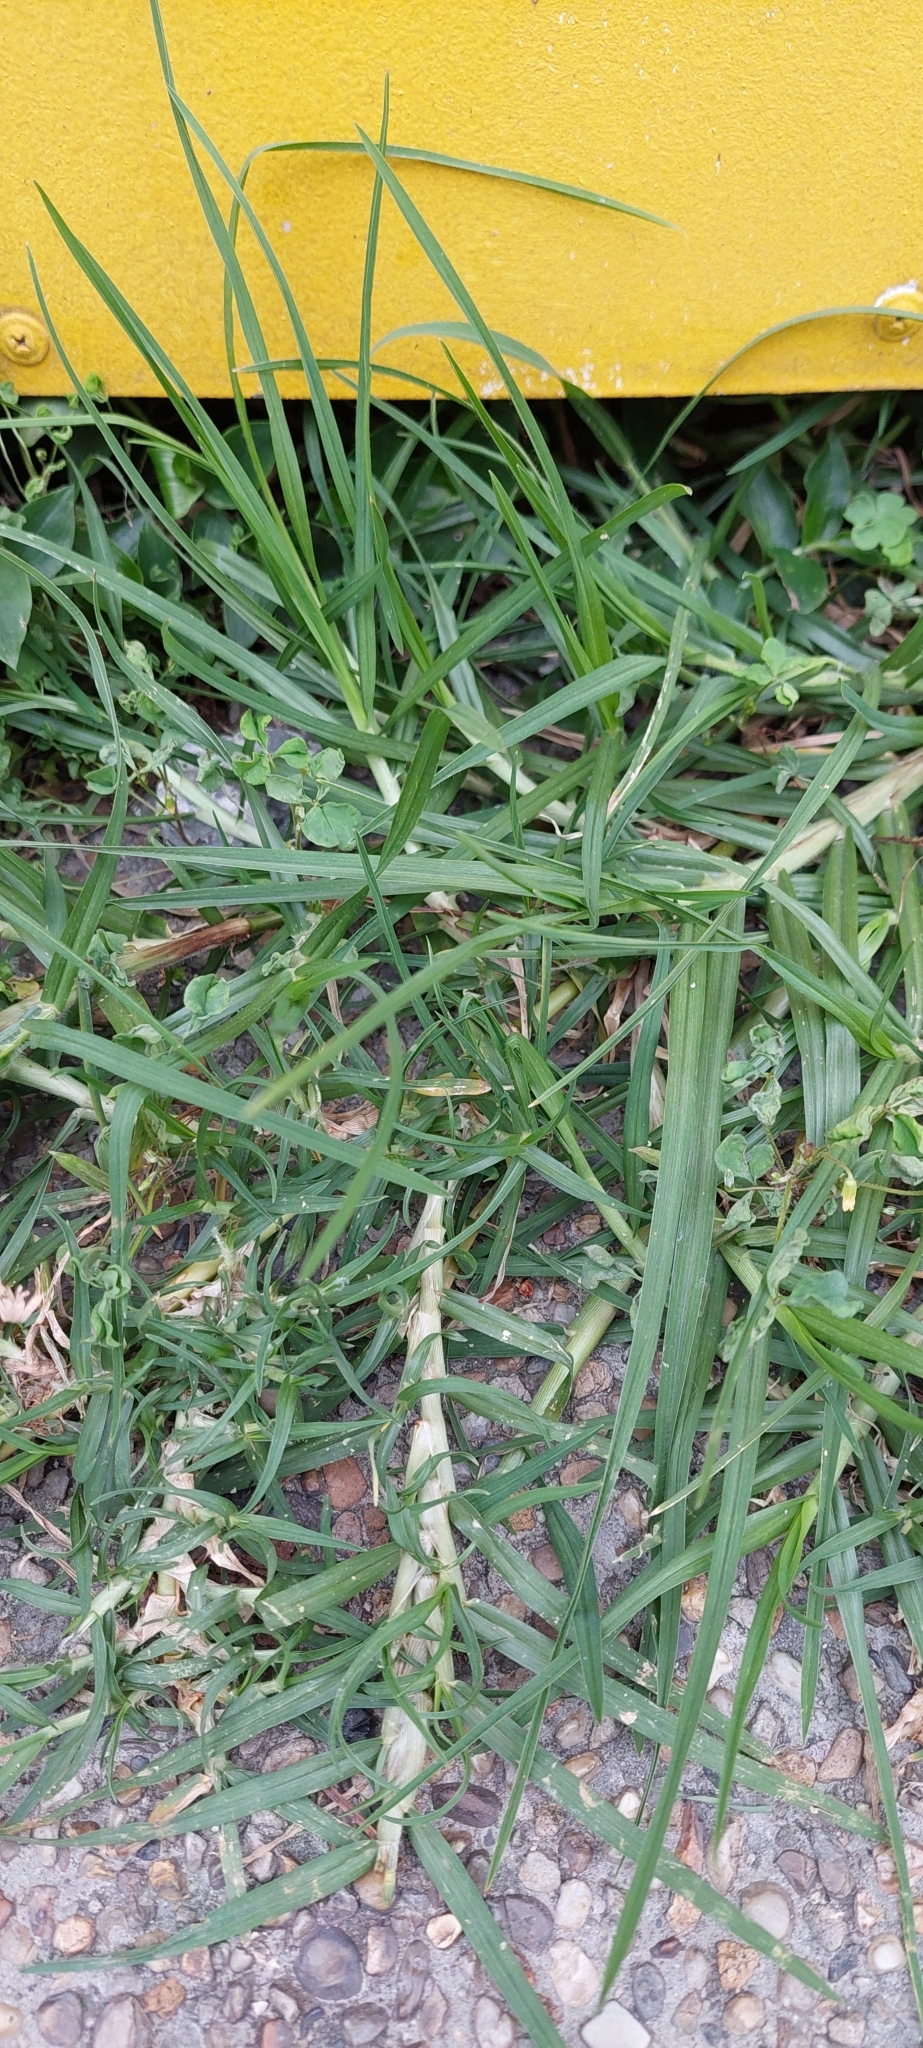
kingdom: Plantae
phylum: Tracheophyta
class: Liliopsida
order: Poales
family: Poaceae
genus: Cenchrus
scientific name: Cenchrus clandestinus
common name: Kikuyugrass
